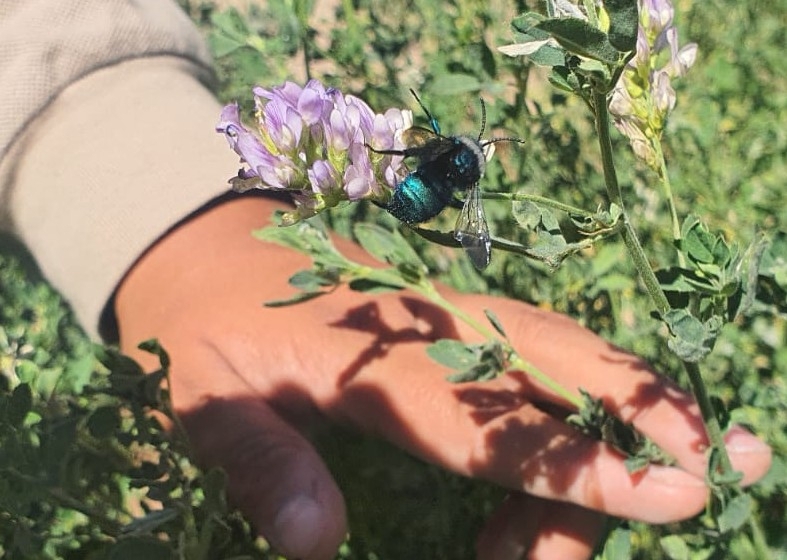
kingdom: Animalia
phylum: Arthropoda
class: Insecta
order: Hymenoptera
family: Apidae
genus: Mesonychium
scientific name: Mesonychium garleppi
